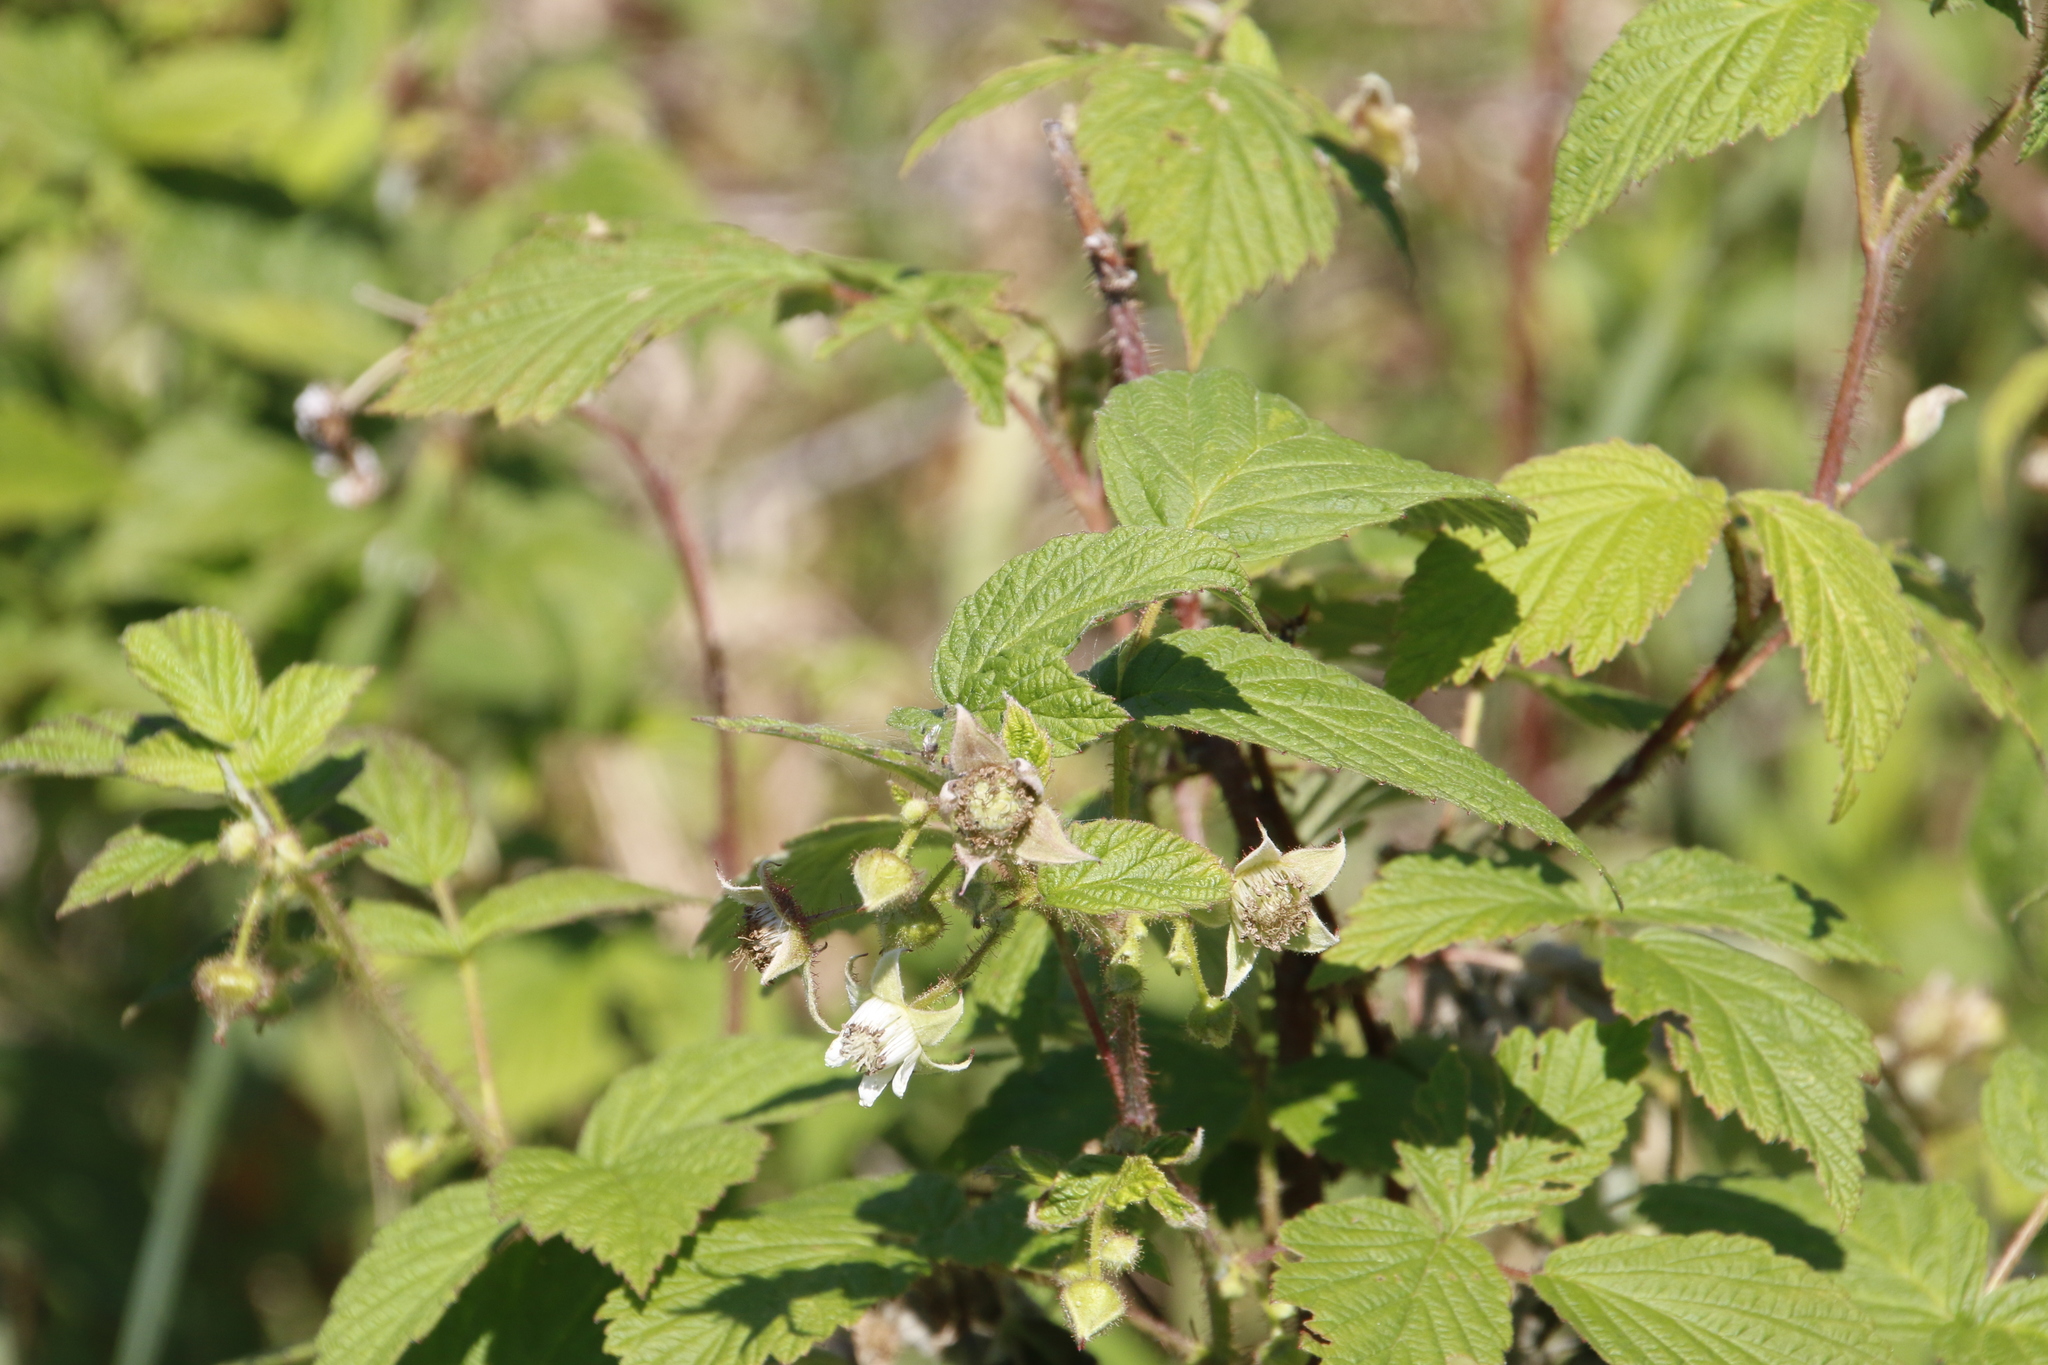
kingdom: Plantae
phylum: Tracheophyta
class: Magnoliopsida
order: Rosales
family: Rosaceae
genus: Rubus
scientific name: Rubus idaeus
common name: Raspberry
